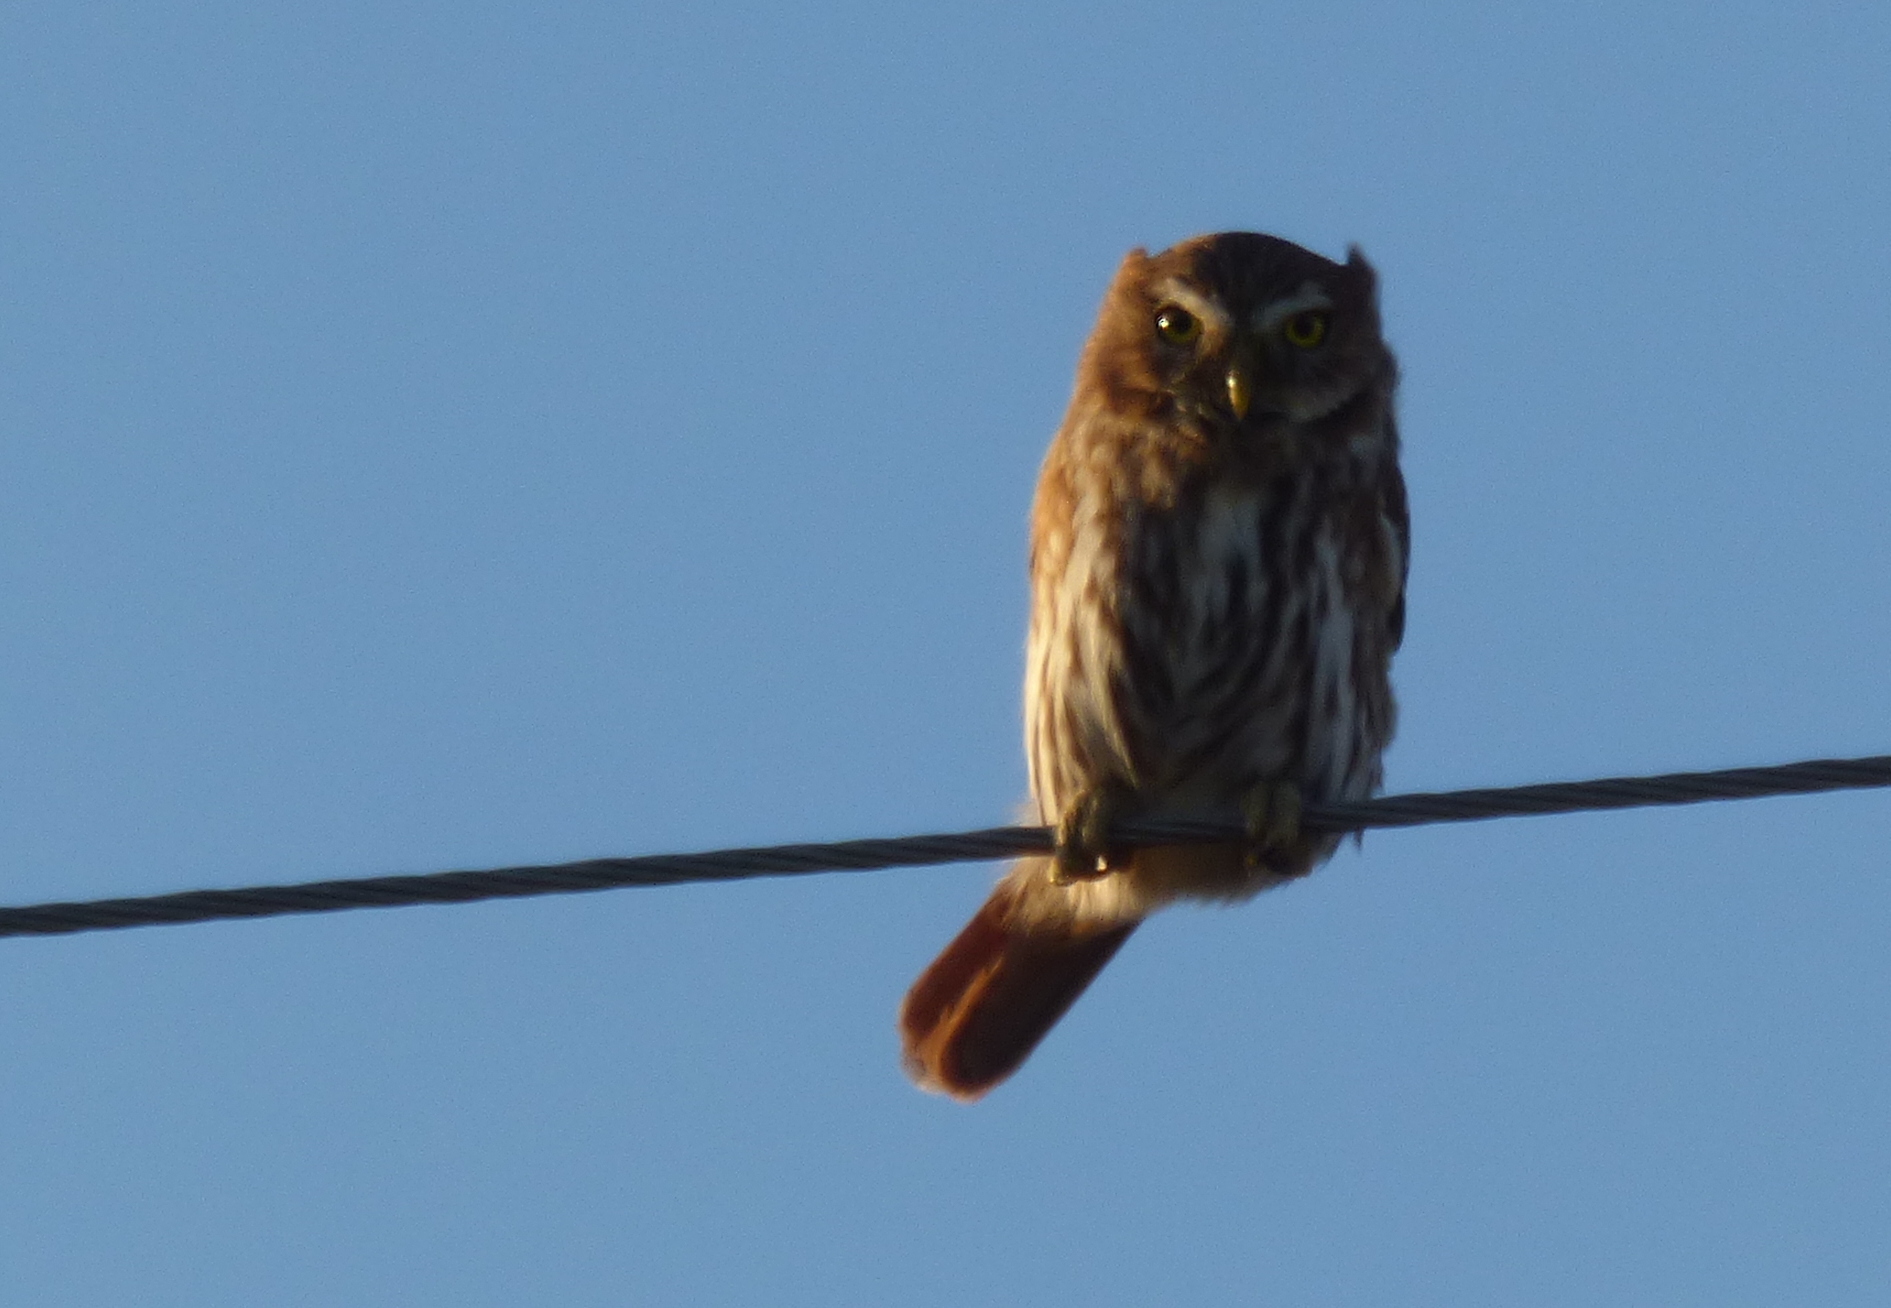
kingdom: Animalia
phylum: Chordata
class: Aves
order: Strigiformes
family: Strigidae
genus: Glaucidium
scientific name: Glaucidium brasilianum
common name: Ferruginous pygmy-owl
